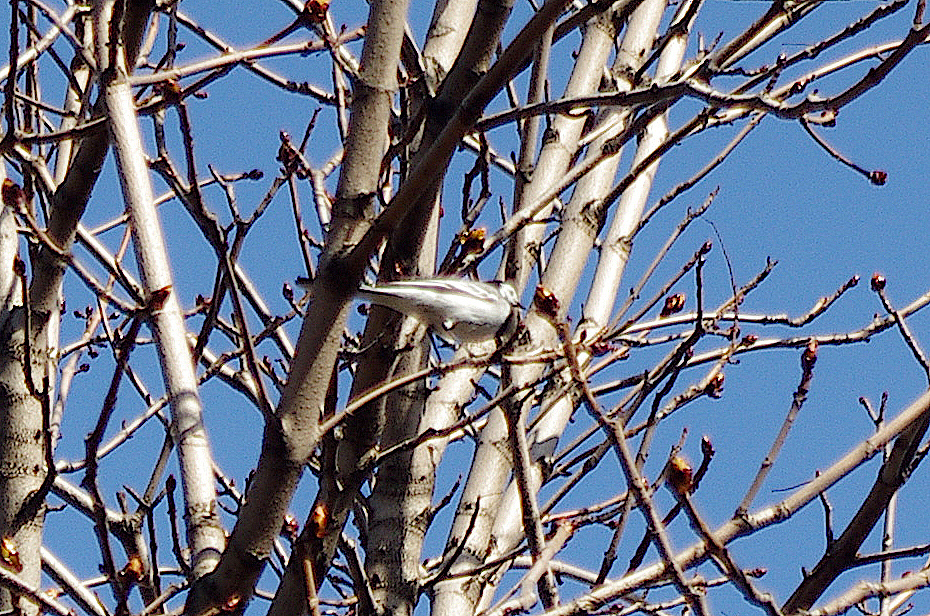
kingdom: Animalia
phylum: Chordata
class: Aves
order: Passeriformes
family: Motacillidae
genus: Motacilla
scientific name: Motacilla alba
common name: White wagtail
